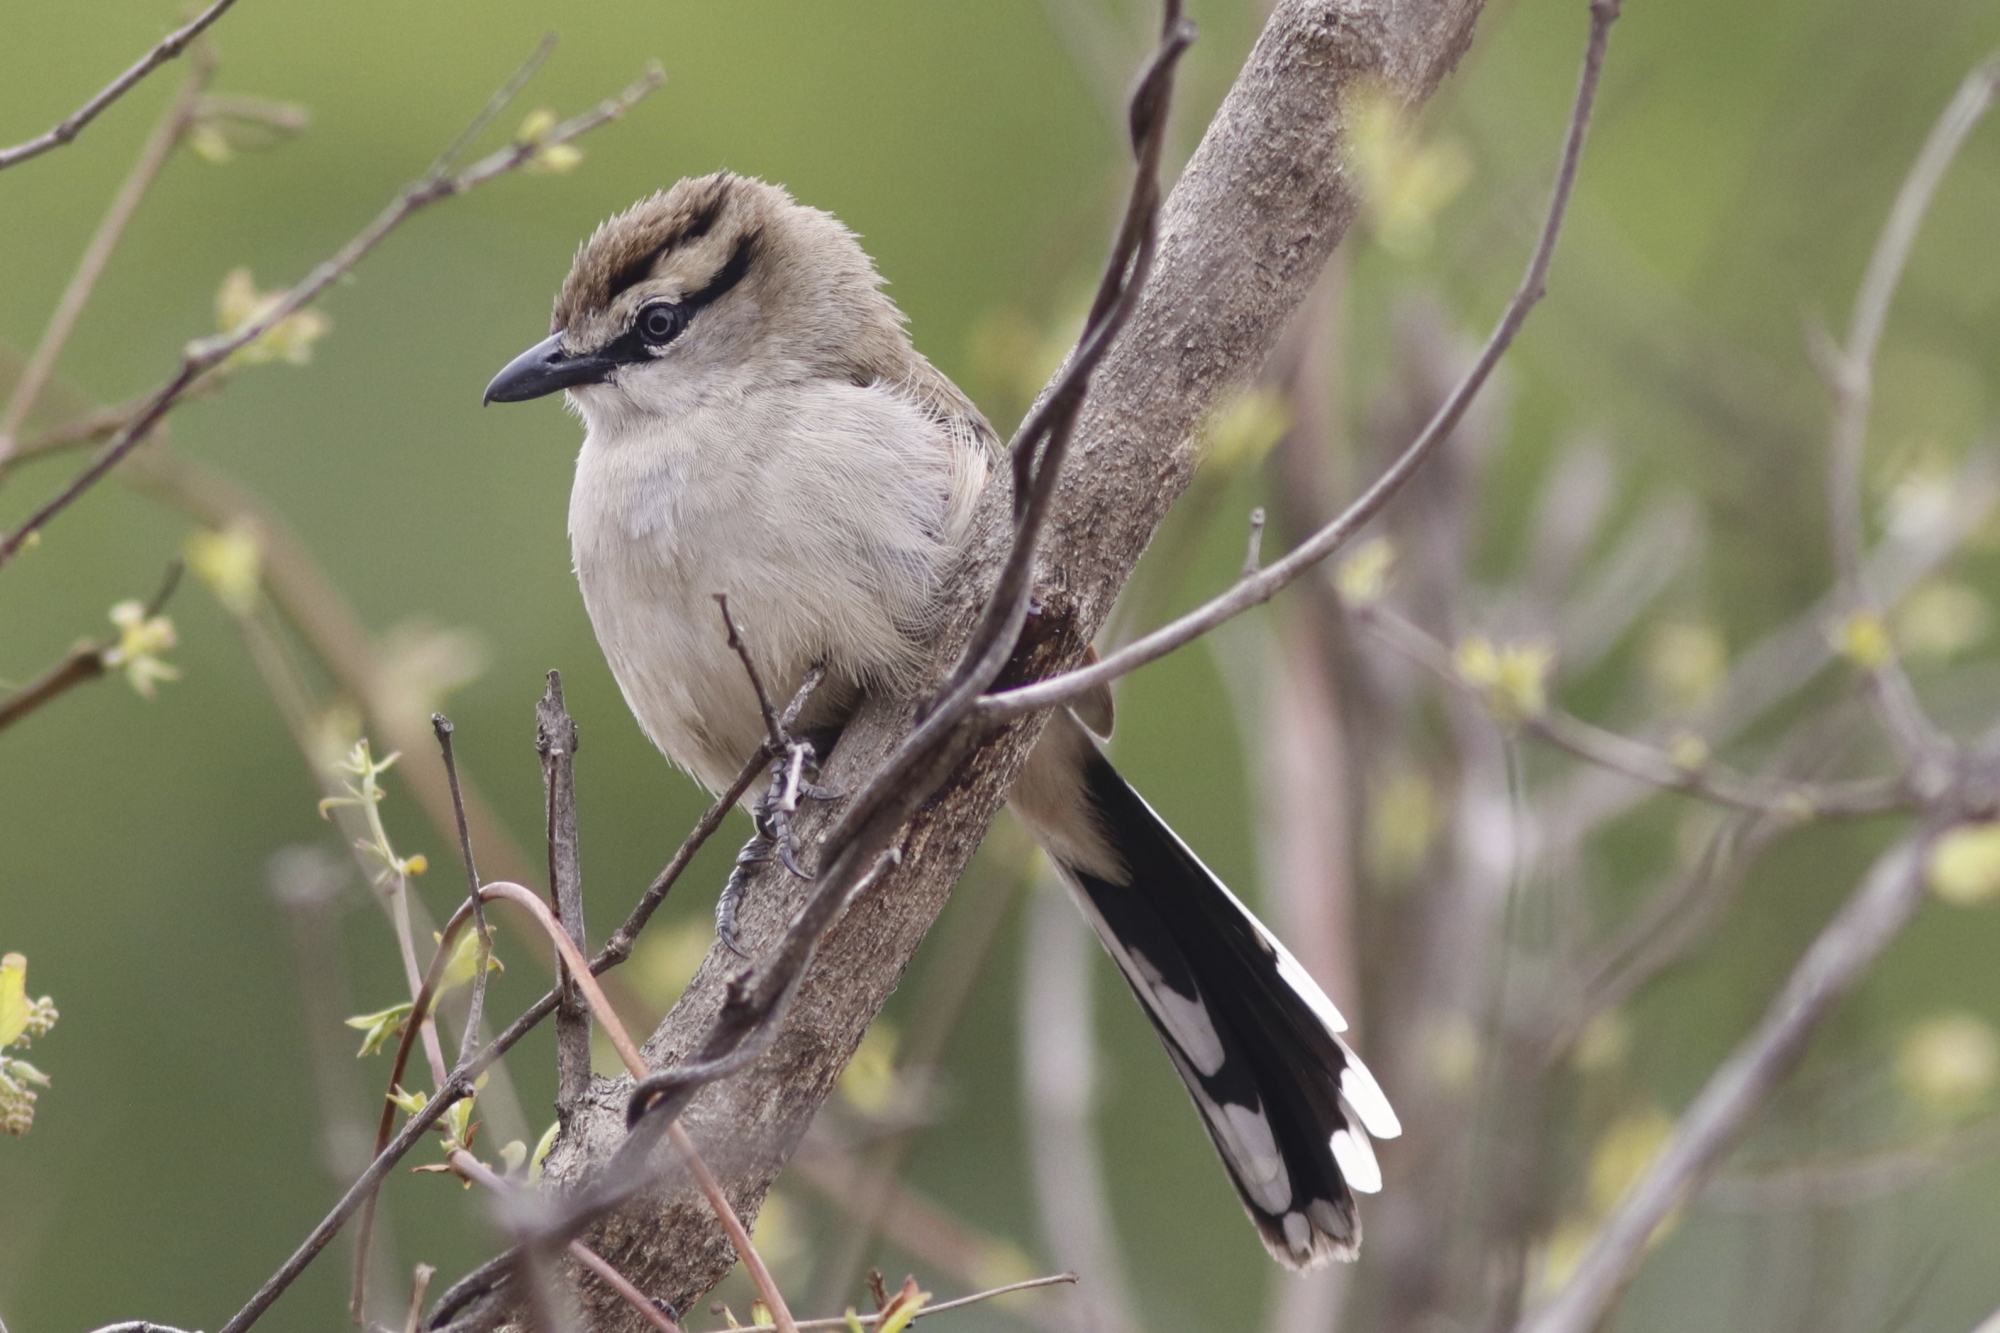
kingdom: Animalia
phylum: Chordata
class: Aves
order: Passeriformes
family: Malaconotidae
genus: Tchagra
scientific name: Tchagra australis
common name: Brown-crowned tchagra
